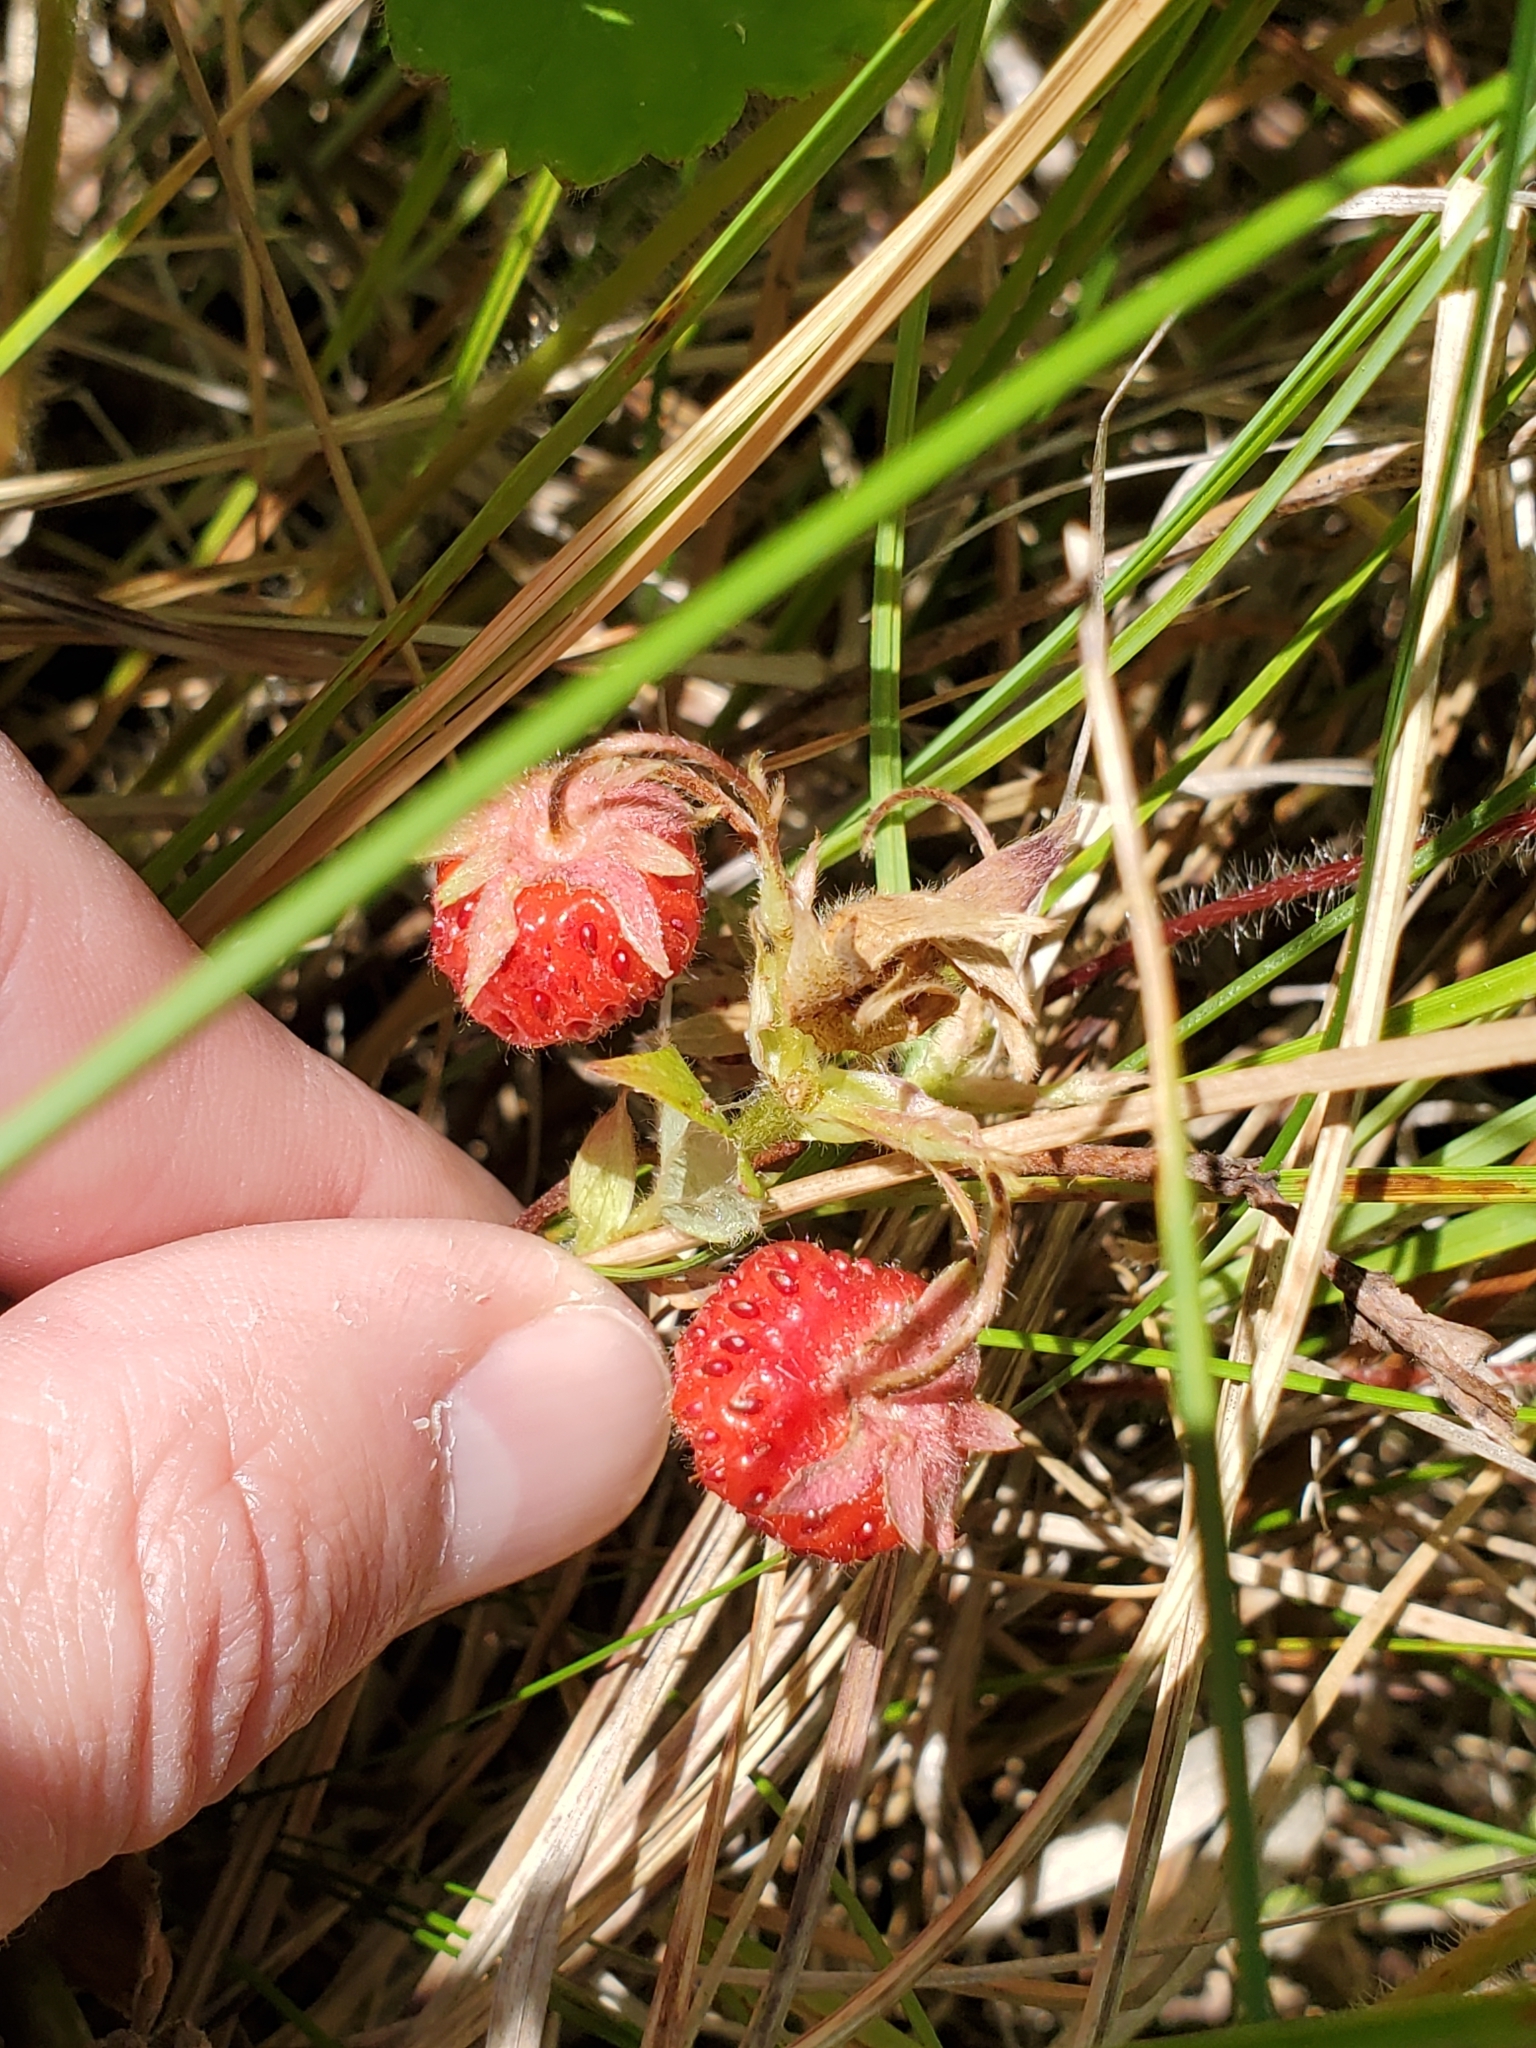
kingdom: Plantae
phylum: Tracheophyta
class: Magnoliopsida
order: Rosales
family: Rosaceae
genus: Fragaria
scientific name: Fragaria virginiana
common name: Thickleaved wild strawberry
